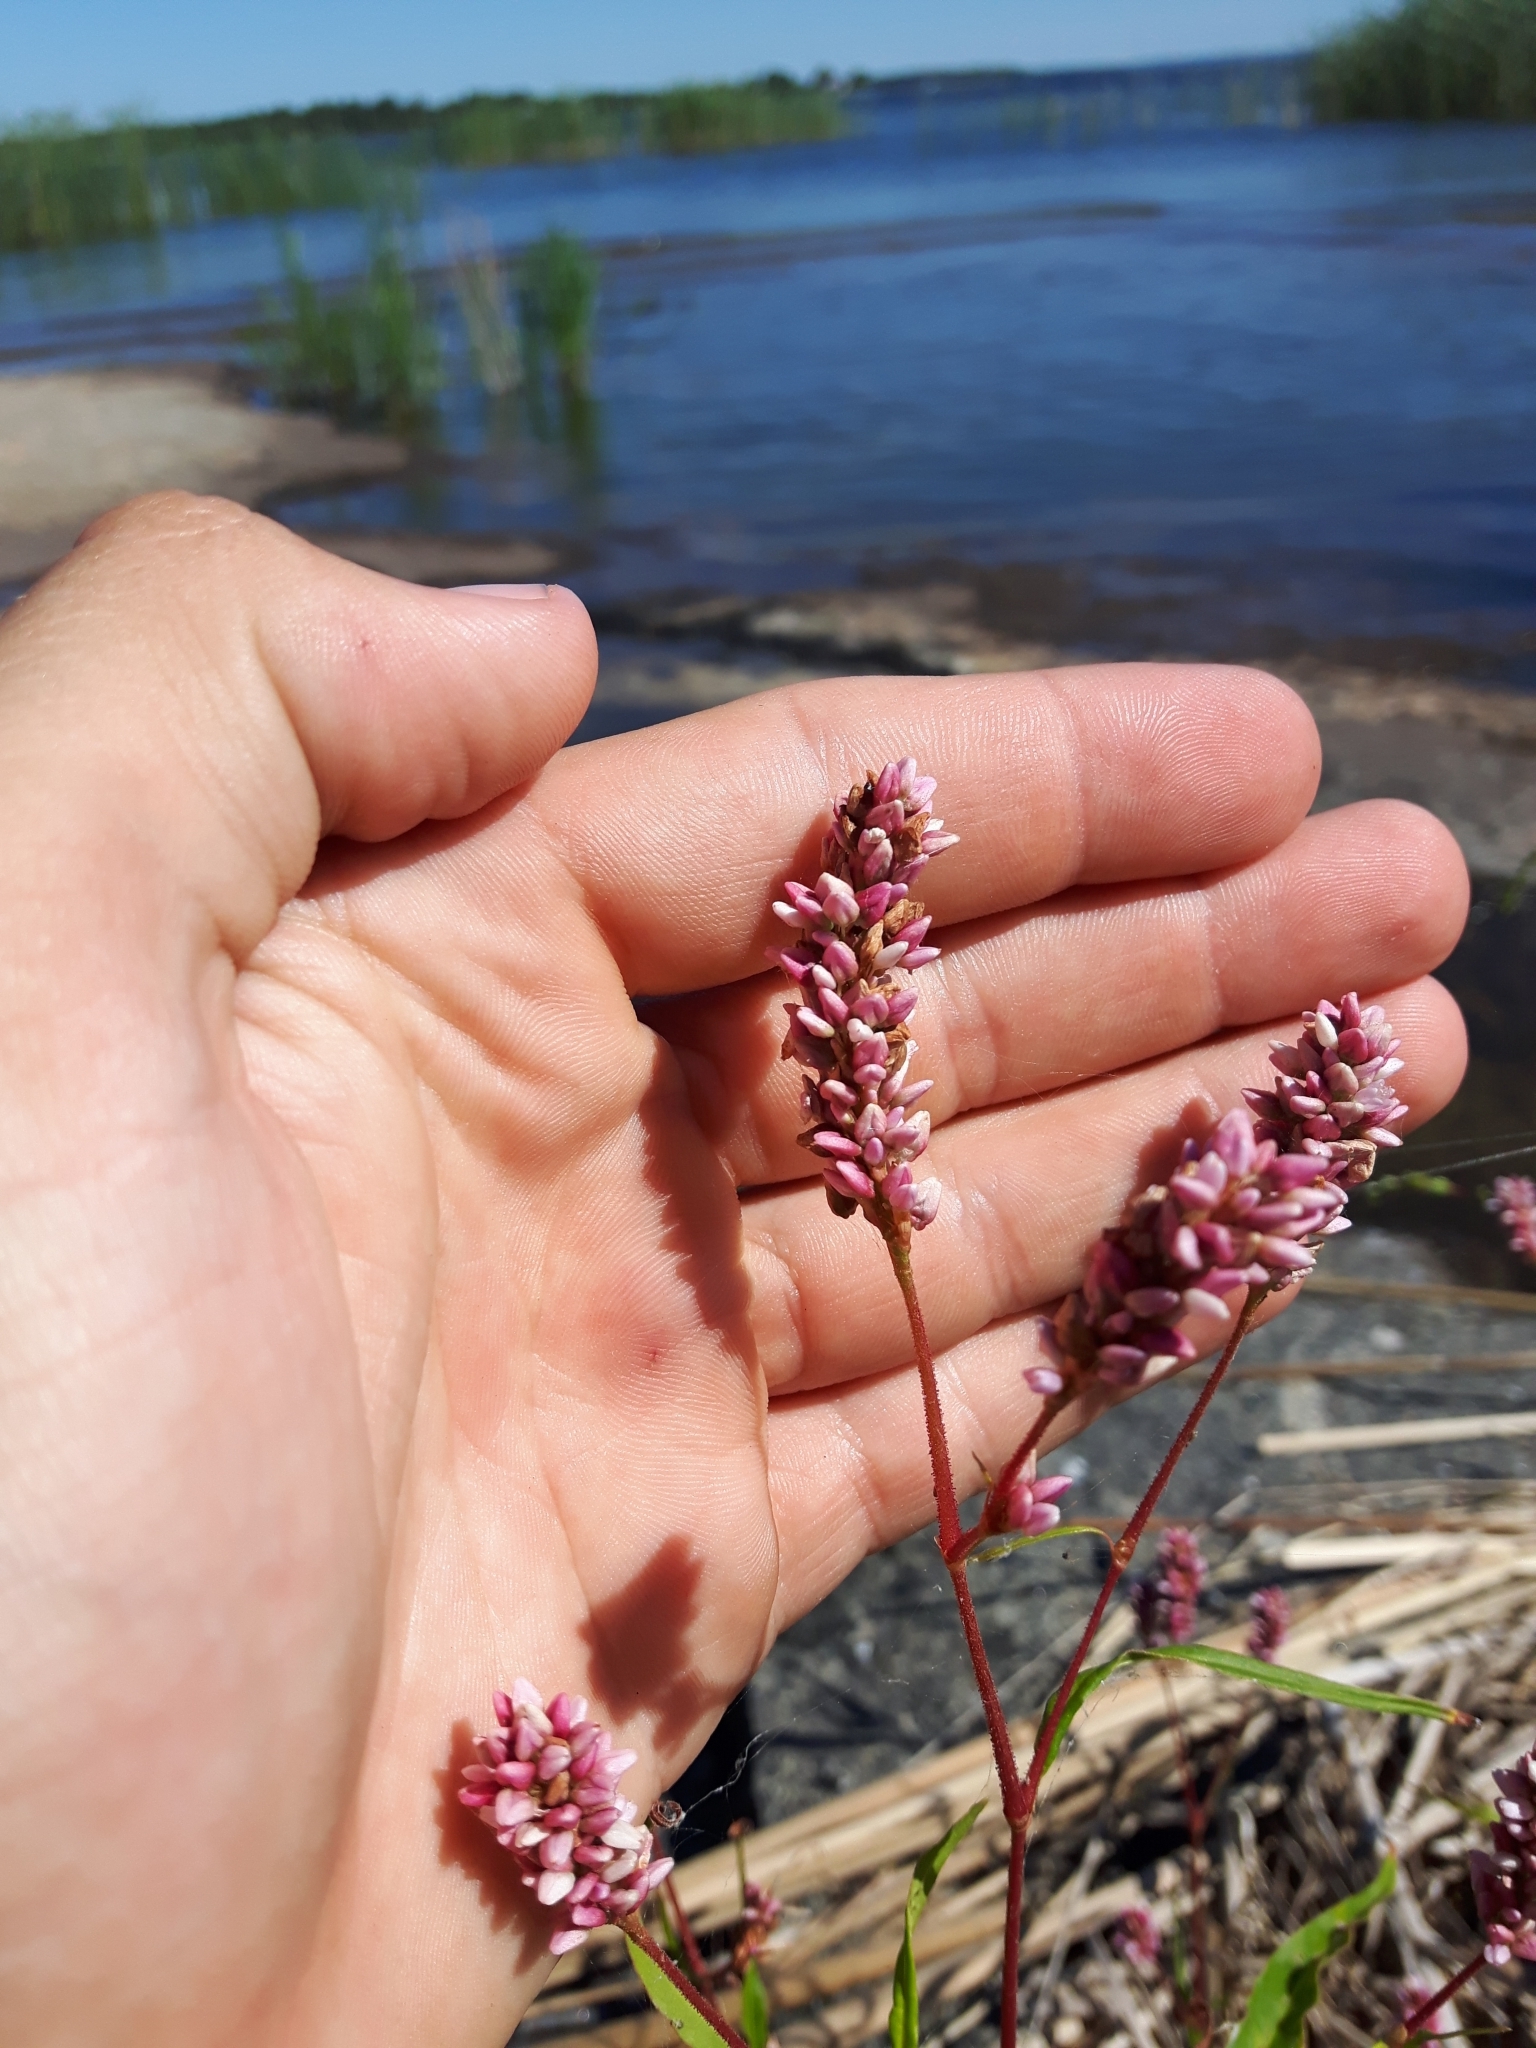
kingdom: Plantae
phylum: Tracheophyta
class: Magnoliopsida
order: Caryophyllales
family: Polygonaceae
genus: Persicaria
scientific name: Persicaria pensylvanica
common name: Pinkweed
